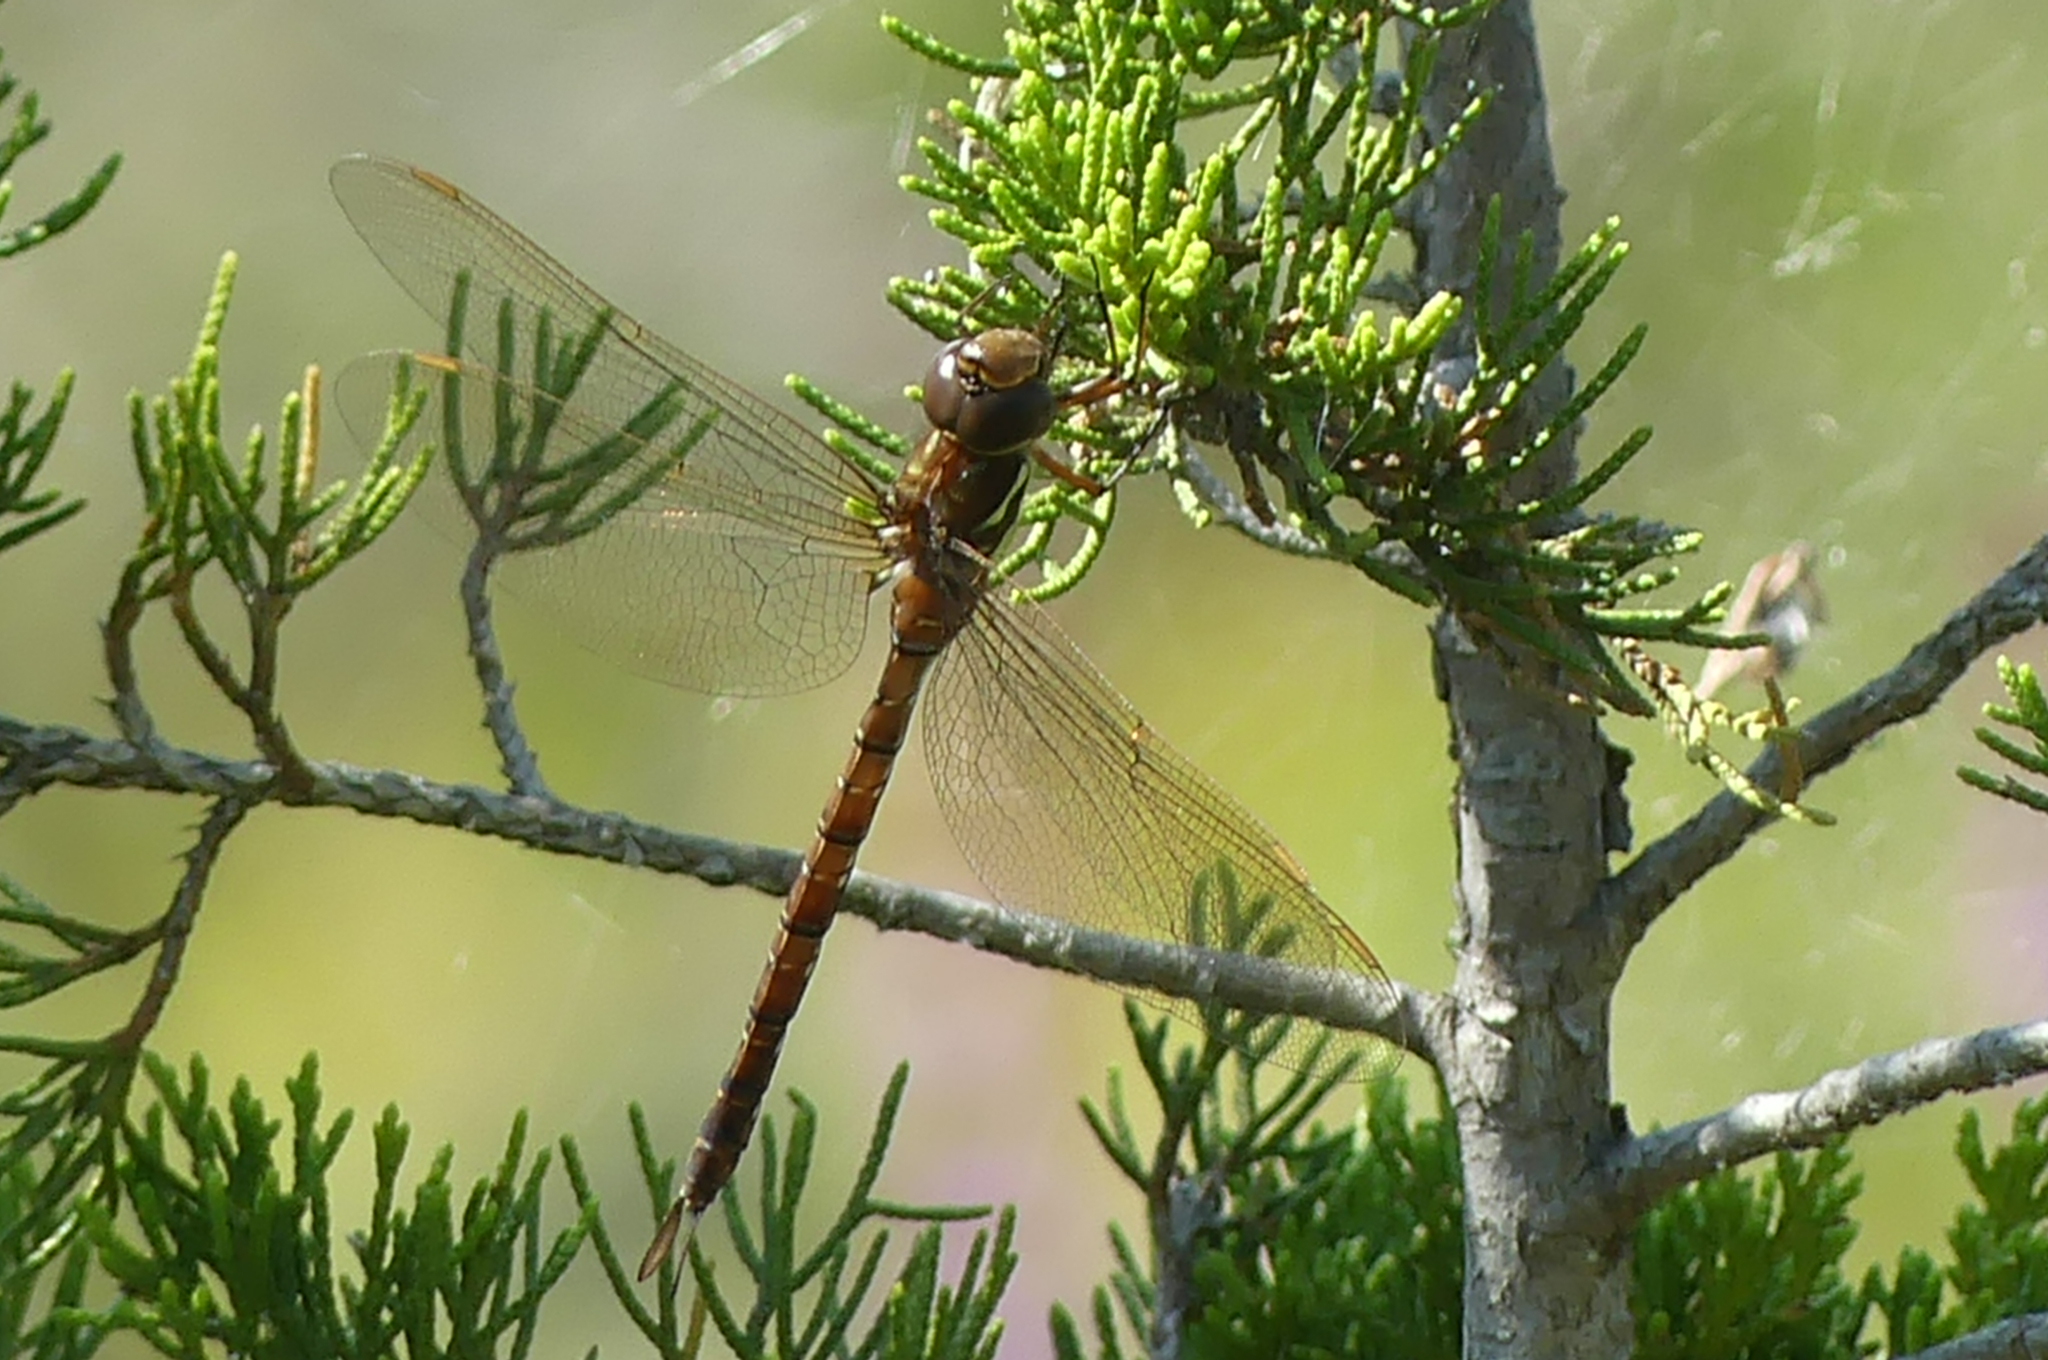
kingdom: Animalia
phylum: Arthropoda
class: Insecta
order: Odonata
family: Aeshnidae
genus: Aeshna
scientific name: Aeshna umbrosa
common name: Shadow darner
